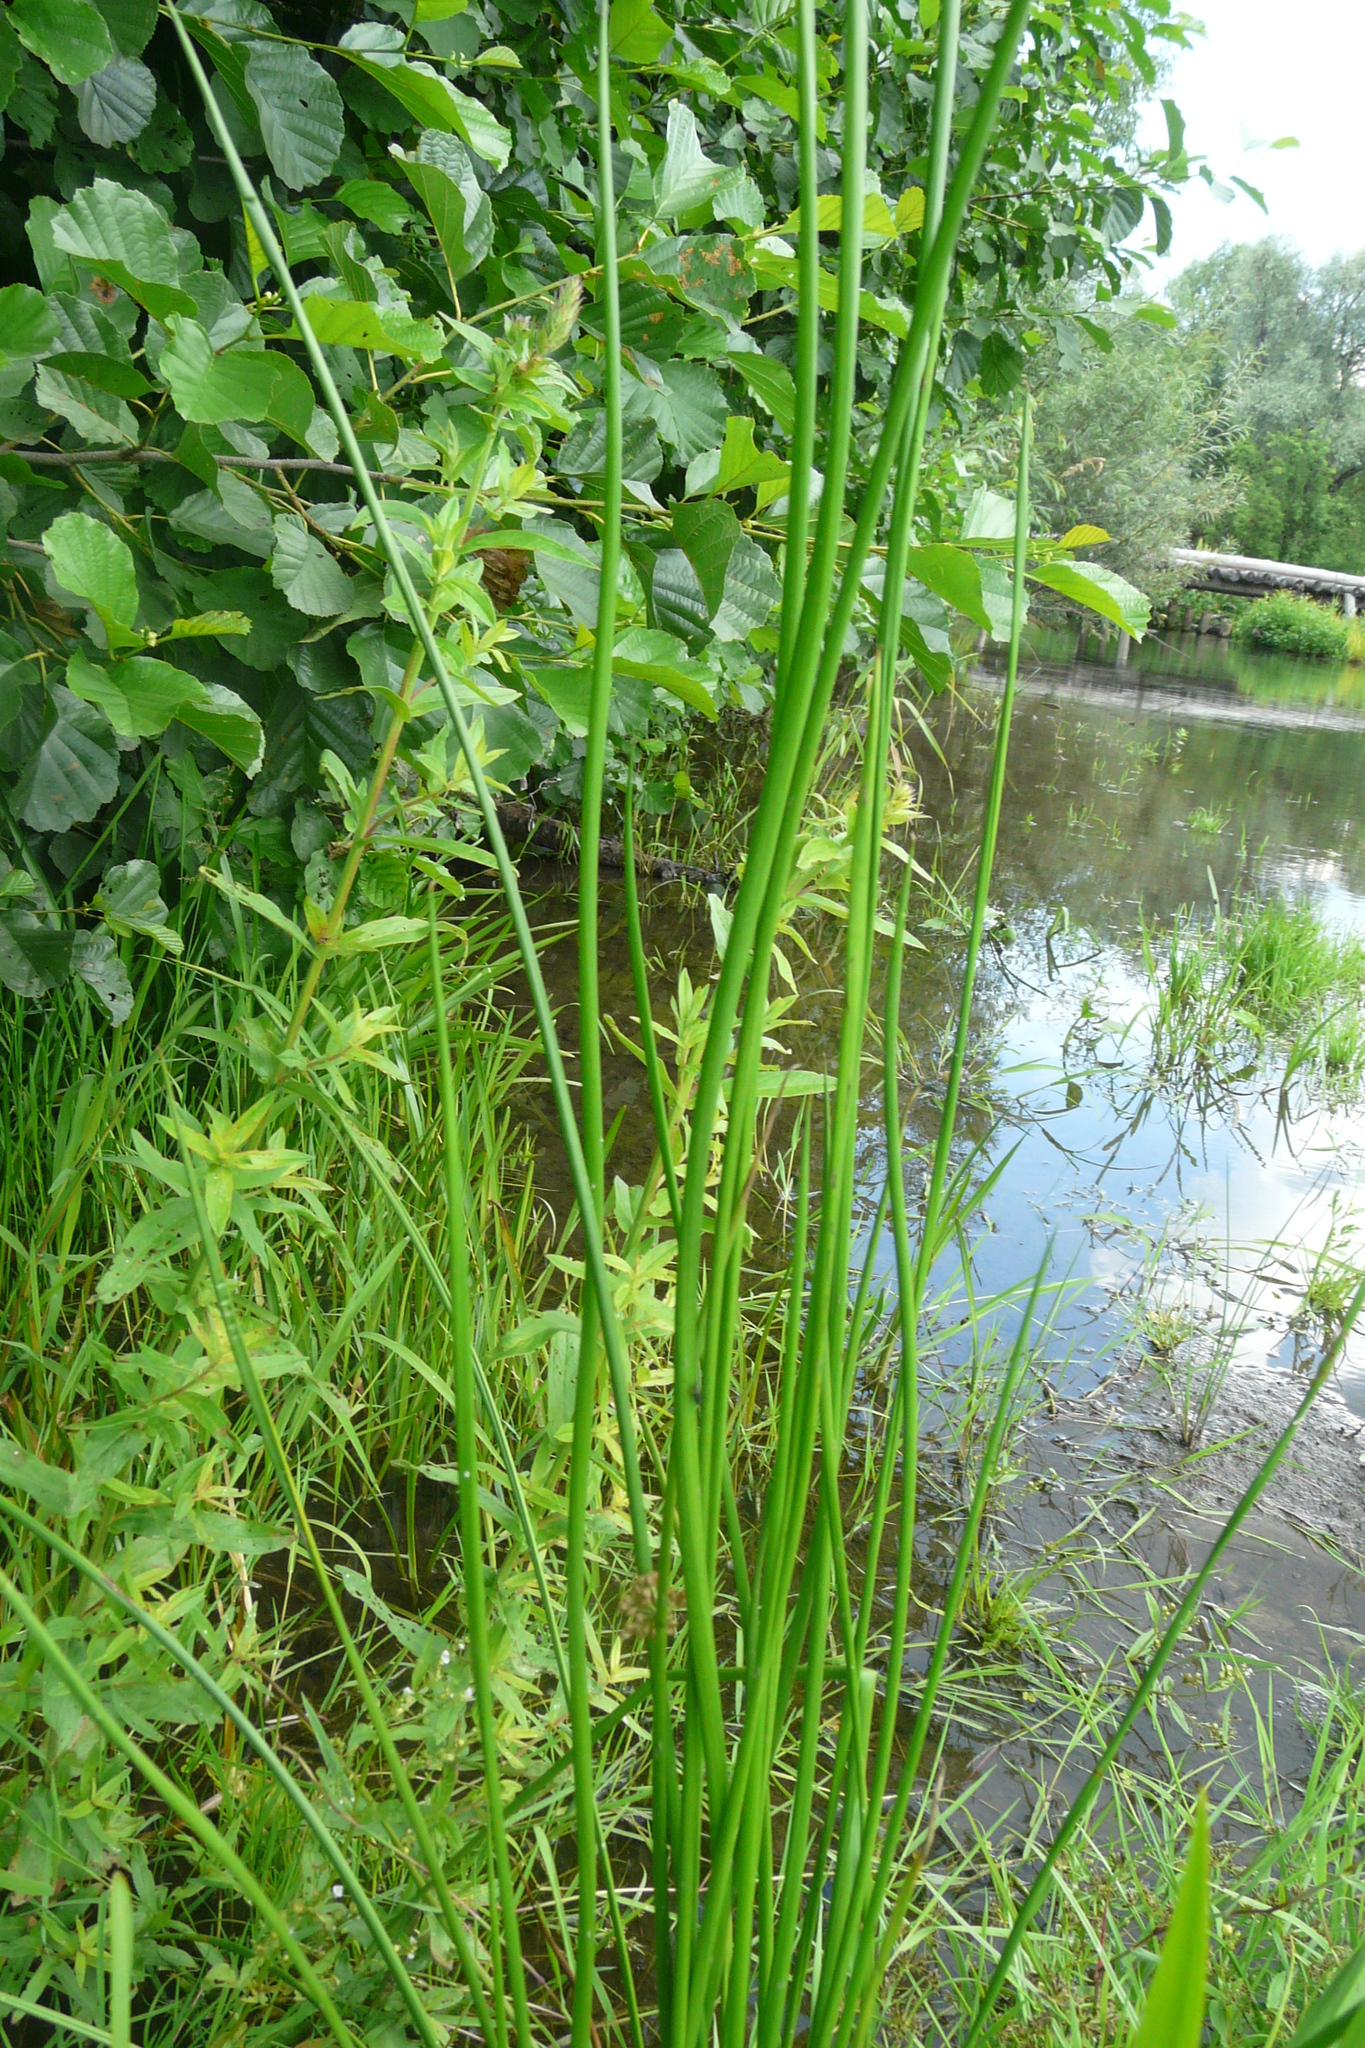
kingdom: Plantae
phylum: Tracheophyta
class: Liliopsida
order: Poales
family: Juncaceae
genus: Juncus
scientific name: Juncus effusus
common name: Soft rush
